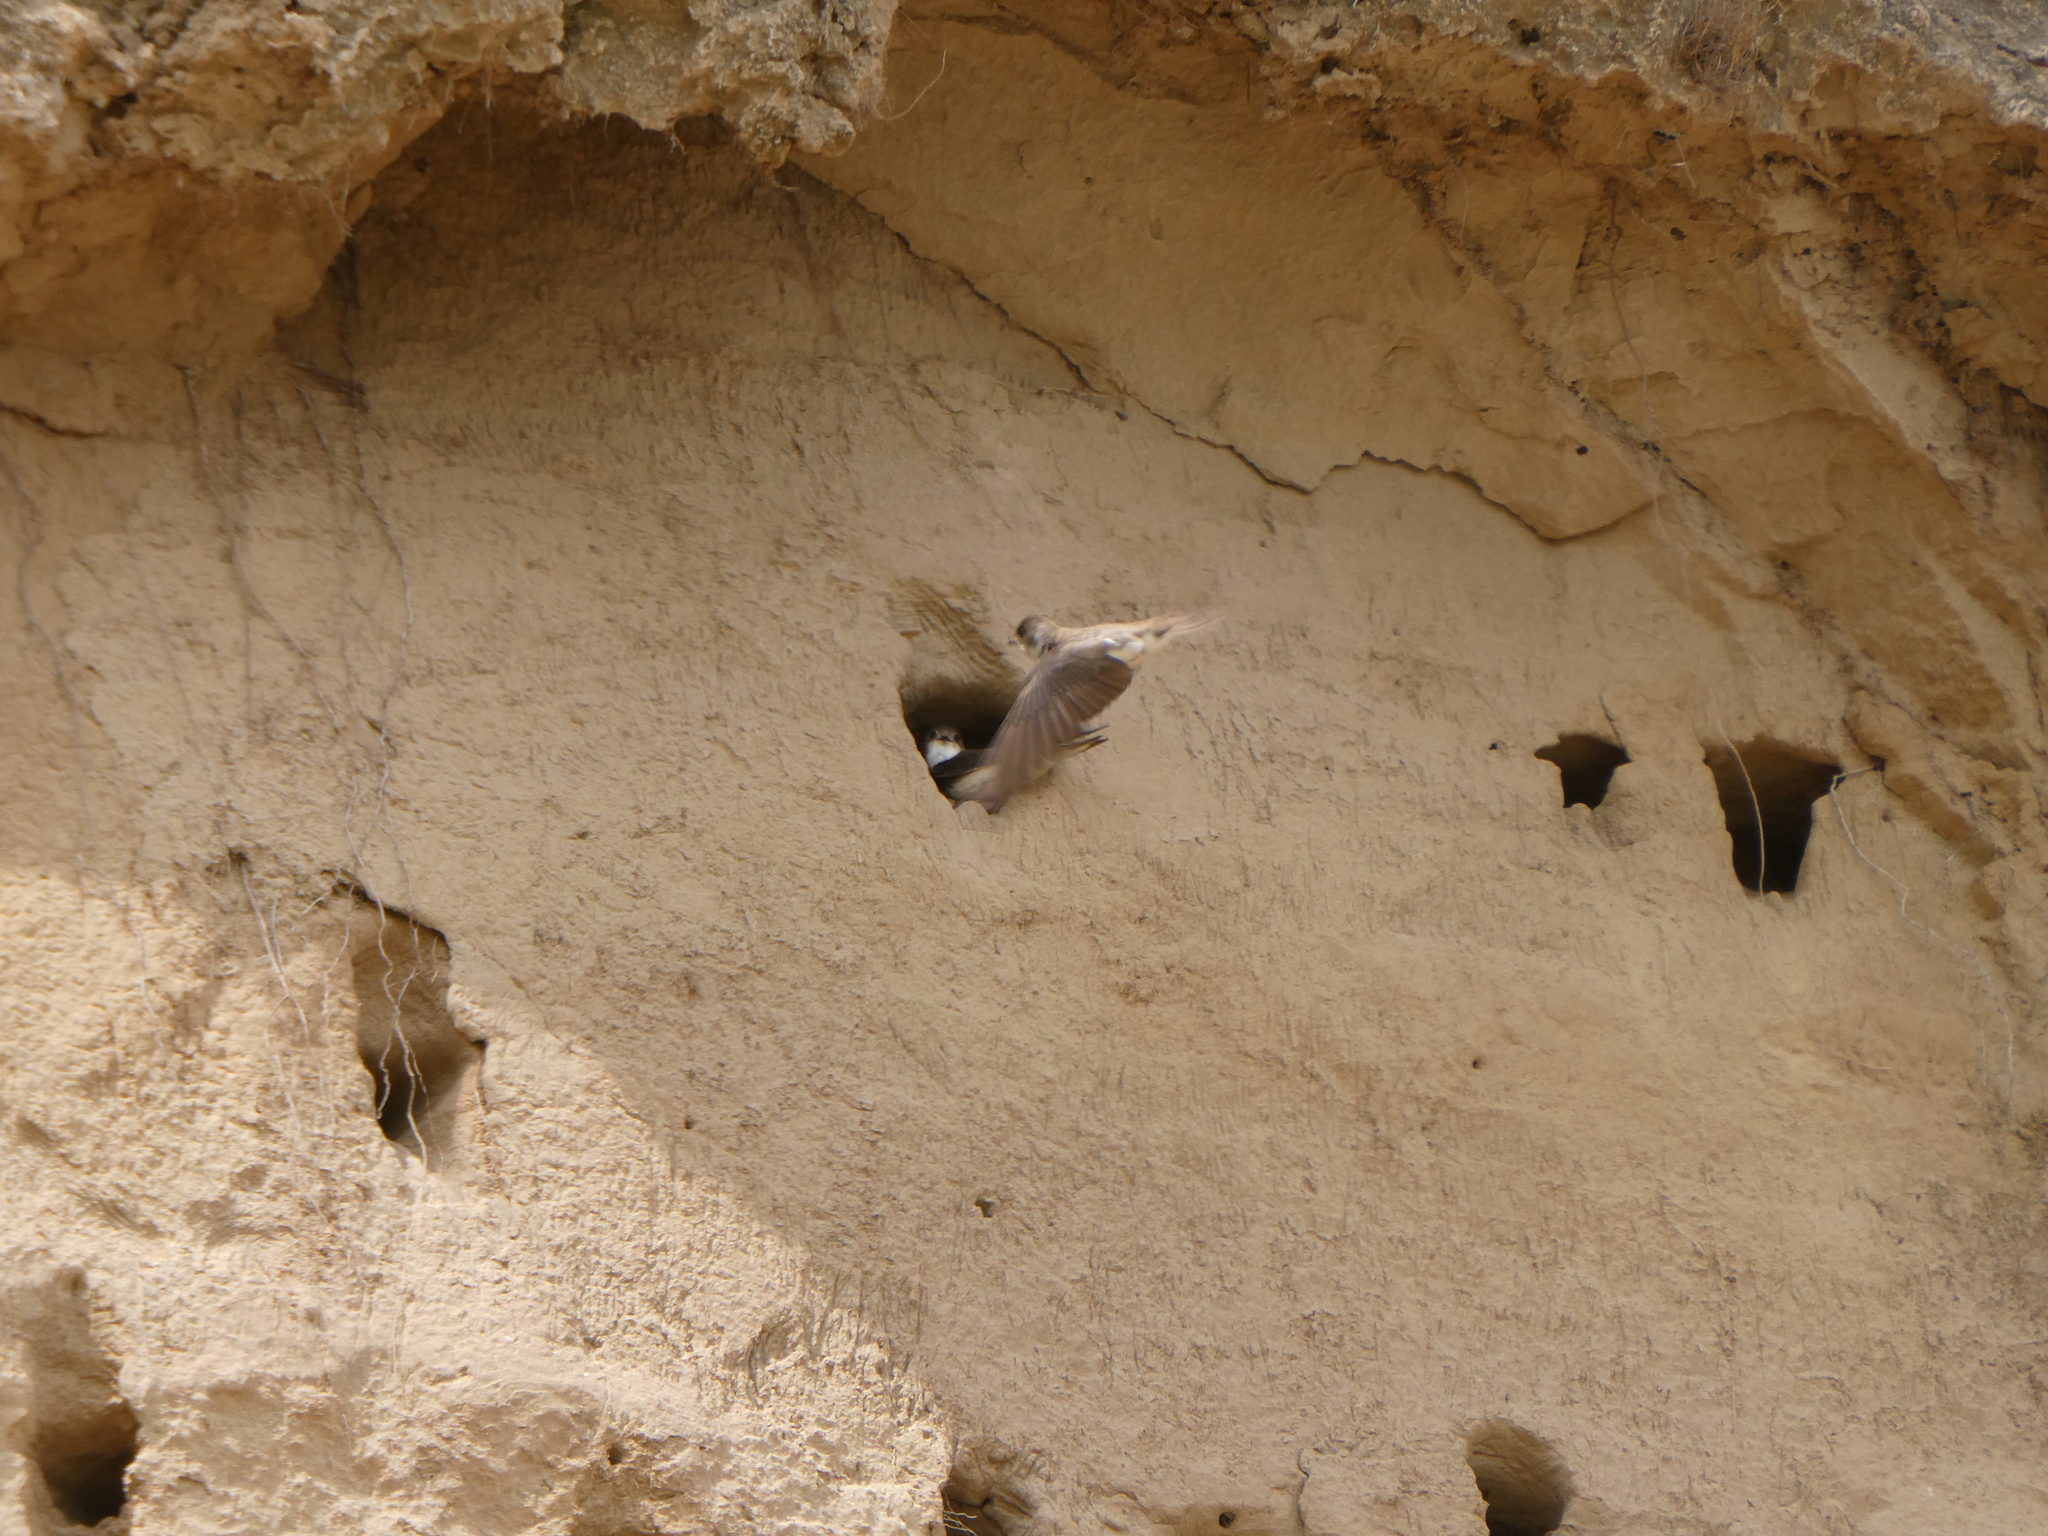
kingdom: Animalia
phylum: Chordata
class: Aves
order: Passeriformes
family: Hirundinidae
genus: Riparia
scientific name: Riparia riparia
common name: Sand martin
